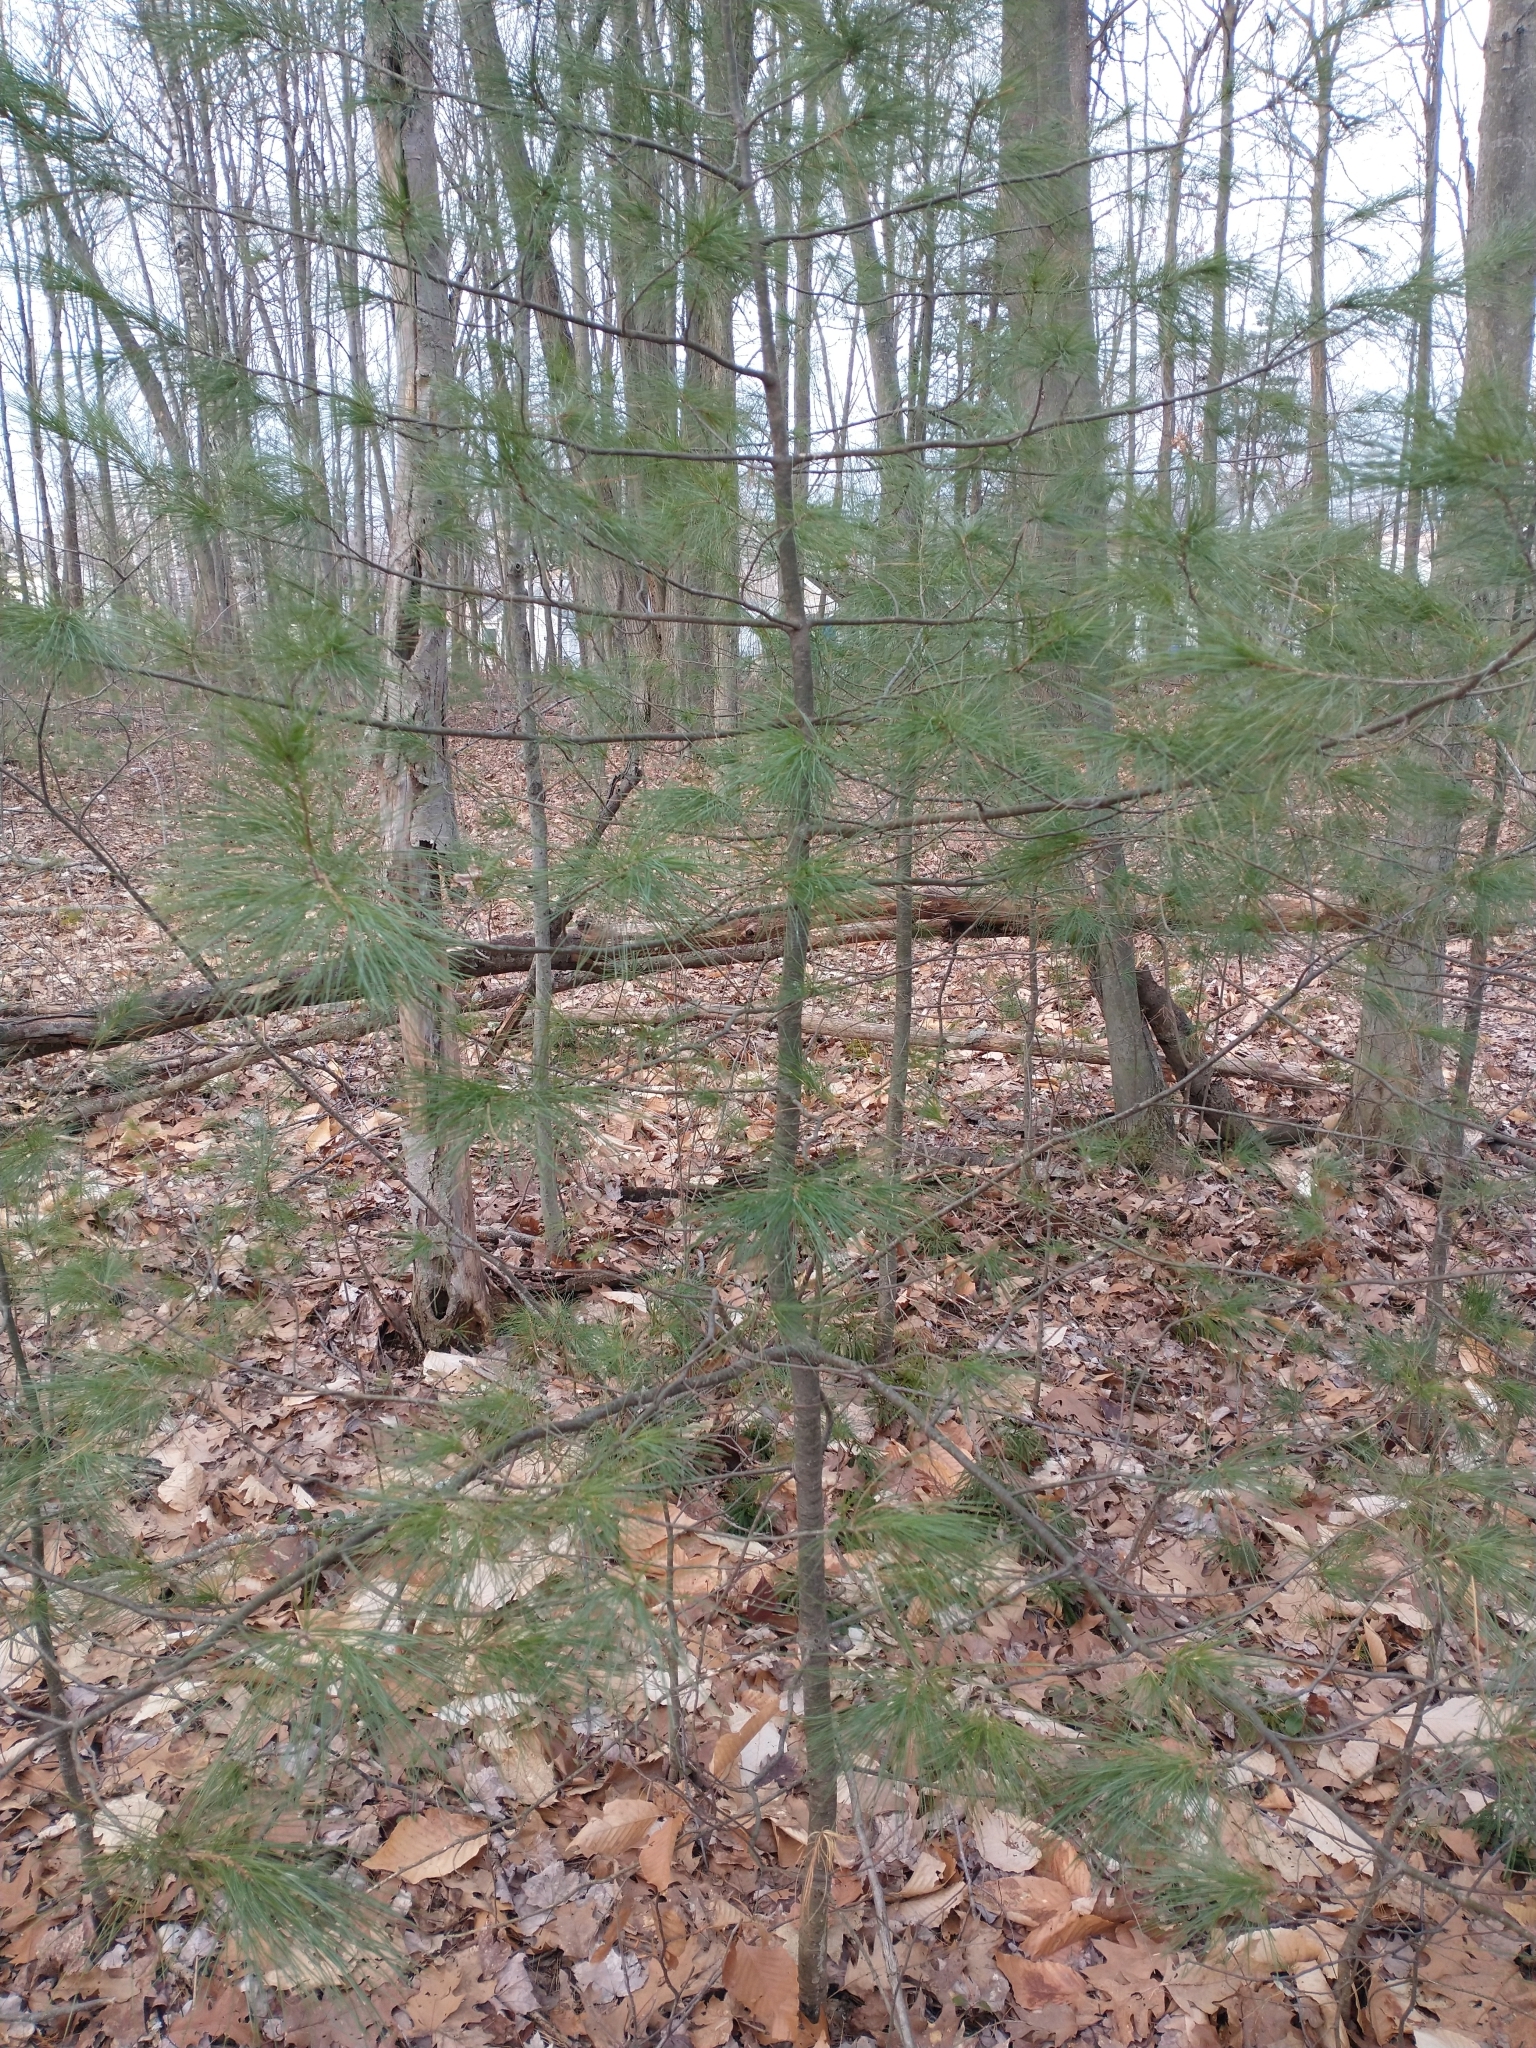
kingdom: Plantae
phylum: Tracheophyta
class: Pinopsida
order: Pinales
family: Pinaceae
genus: Pinus
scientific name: Pinus strobus
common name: Weymouth pine
